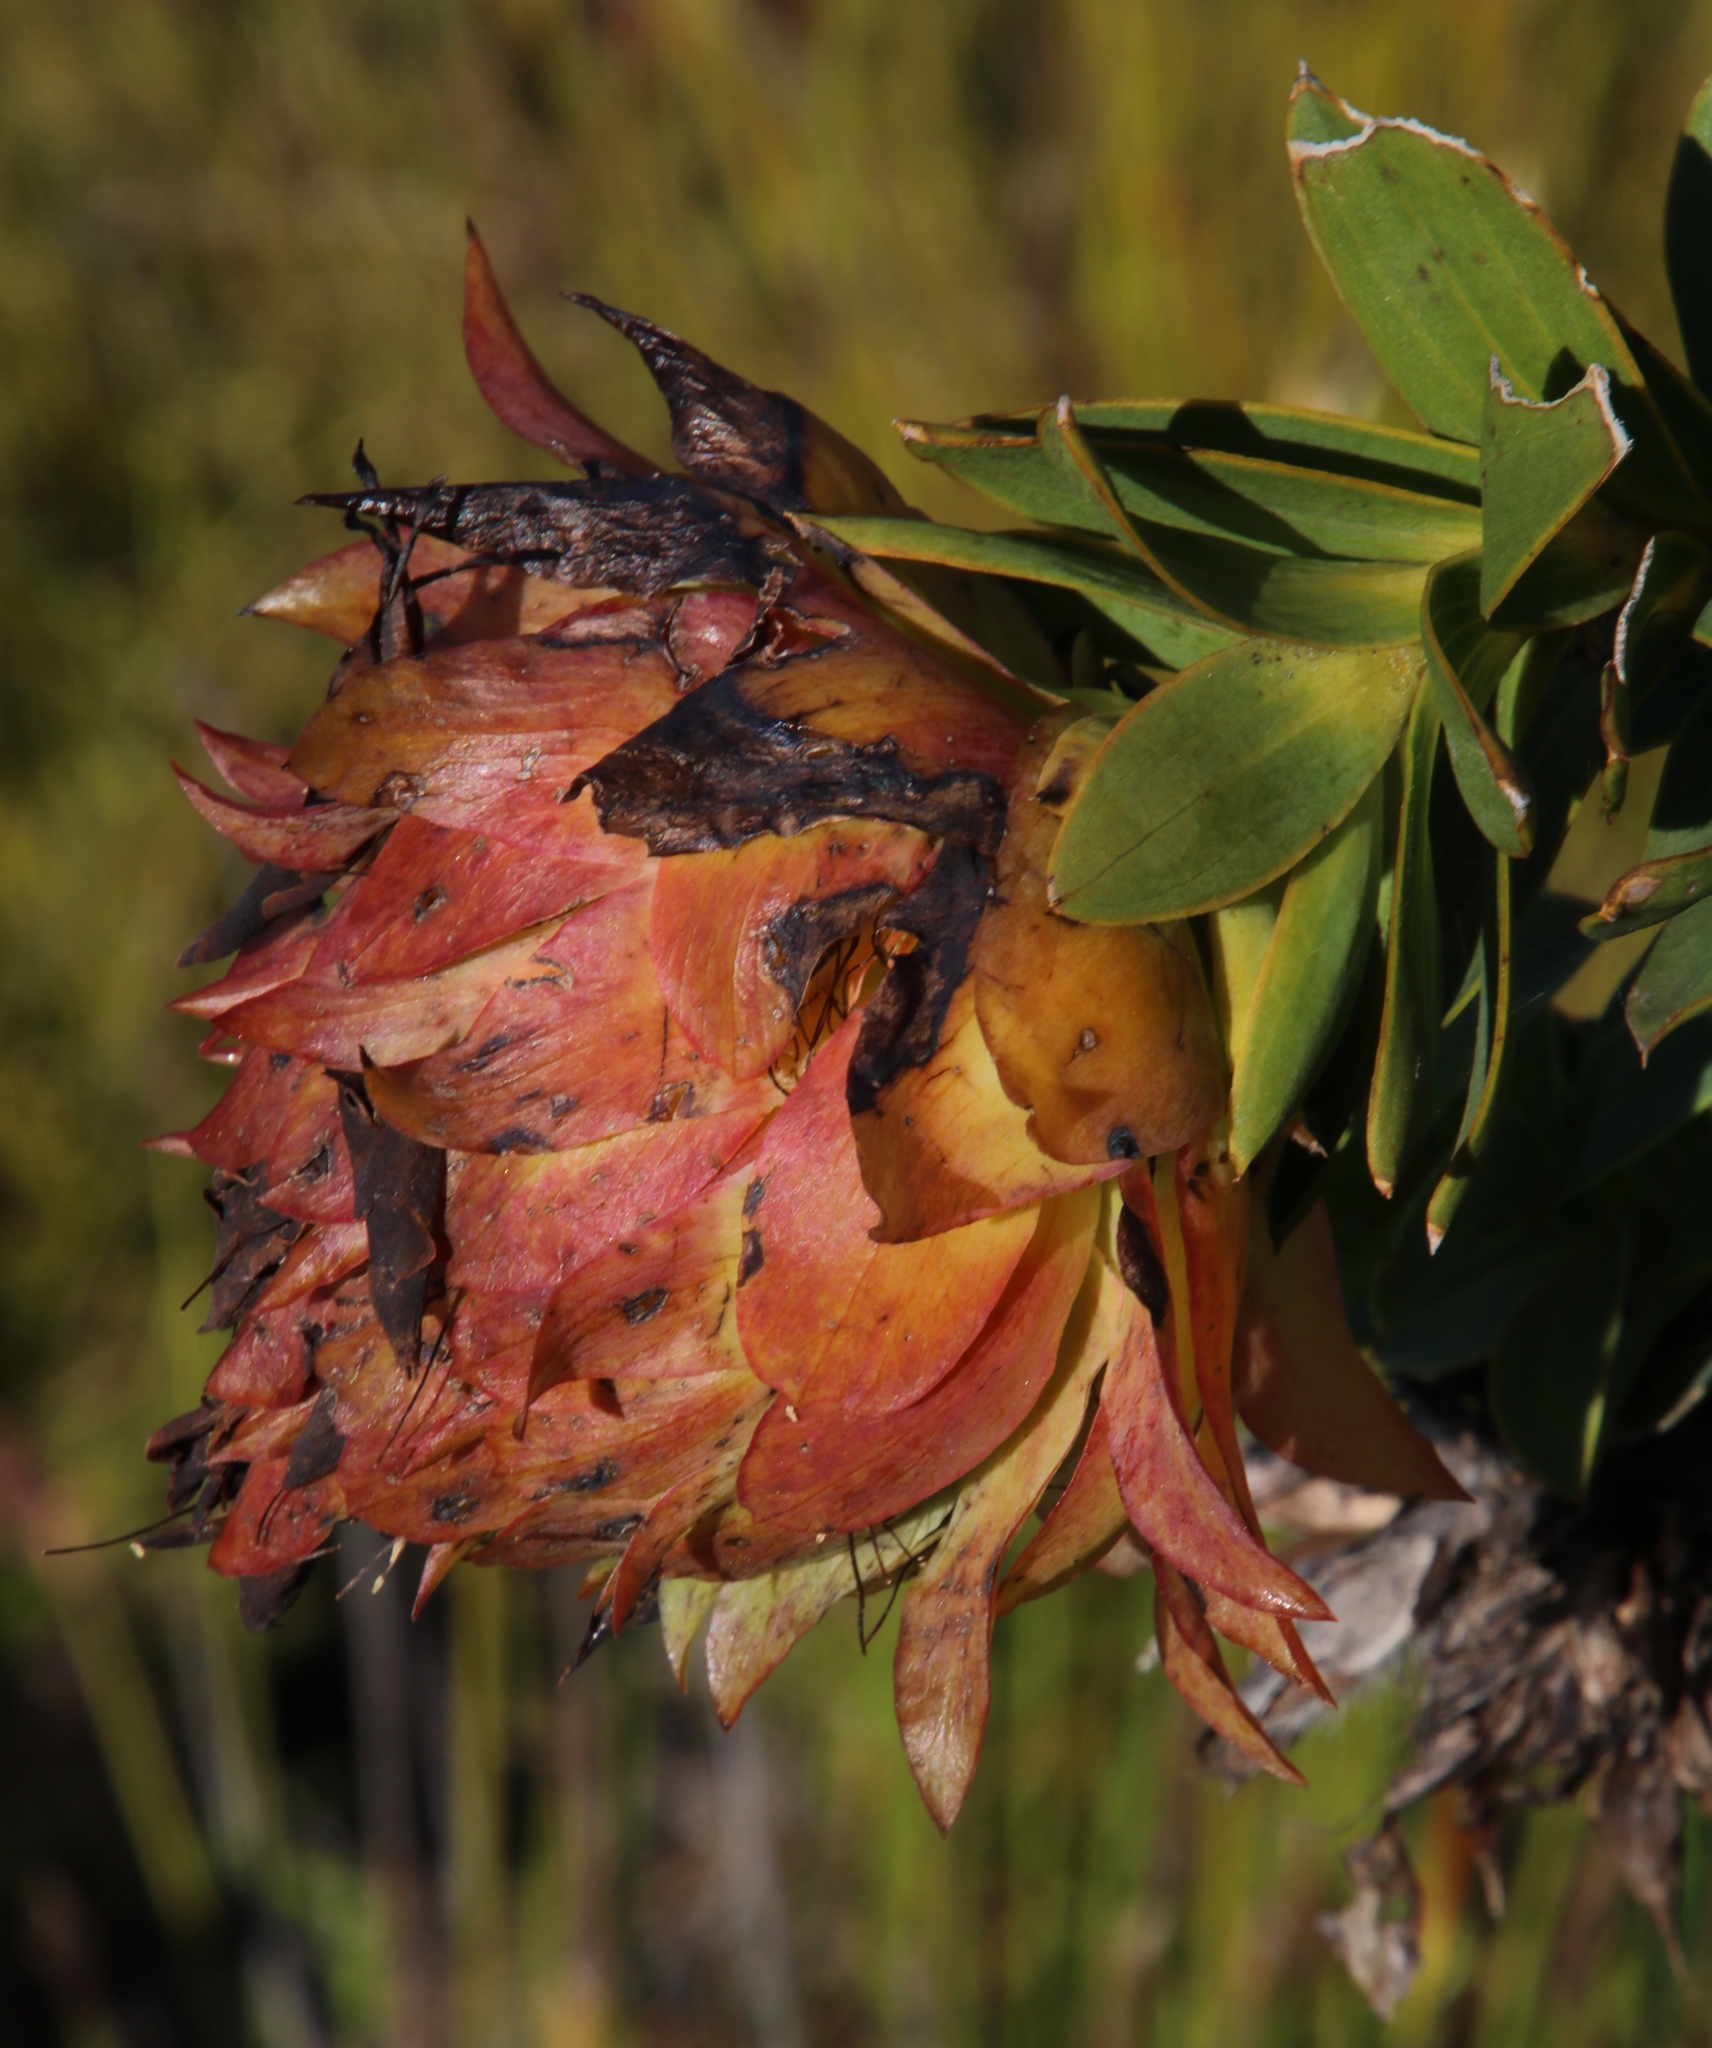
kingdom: Plantae
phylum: Tracheophyta
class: Magnoliopsida
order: Fabales
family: Fabaceae
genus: Liparia
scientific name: Liparia splendens
